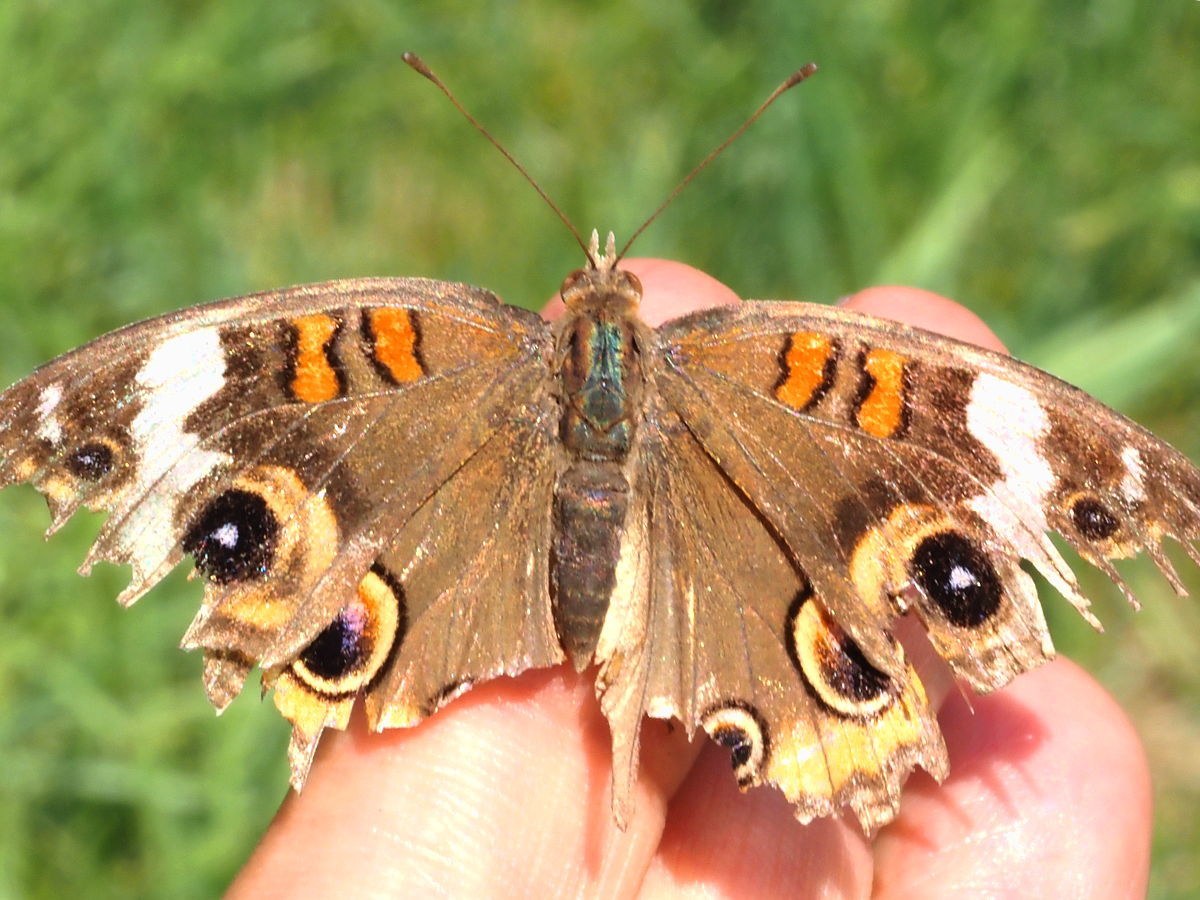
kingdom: Animalia
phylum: Arthropoda
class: Insecta
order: Lepidoptera
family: Nymphalidae
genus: Junonia
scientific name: Junonia coenia
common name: Common buckeye
